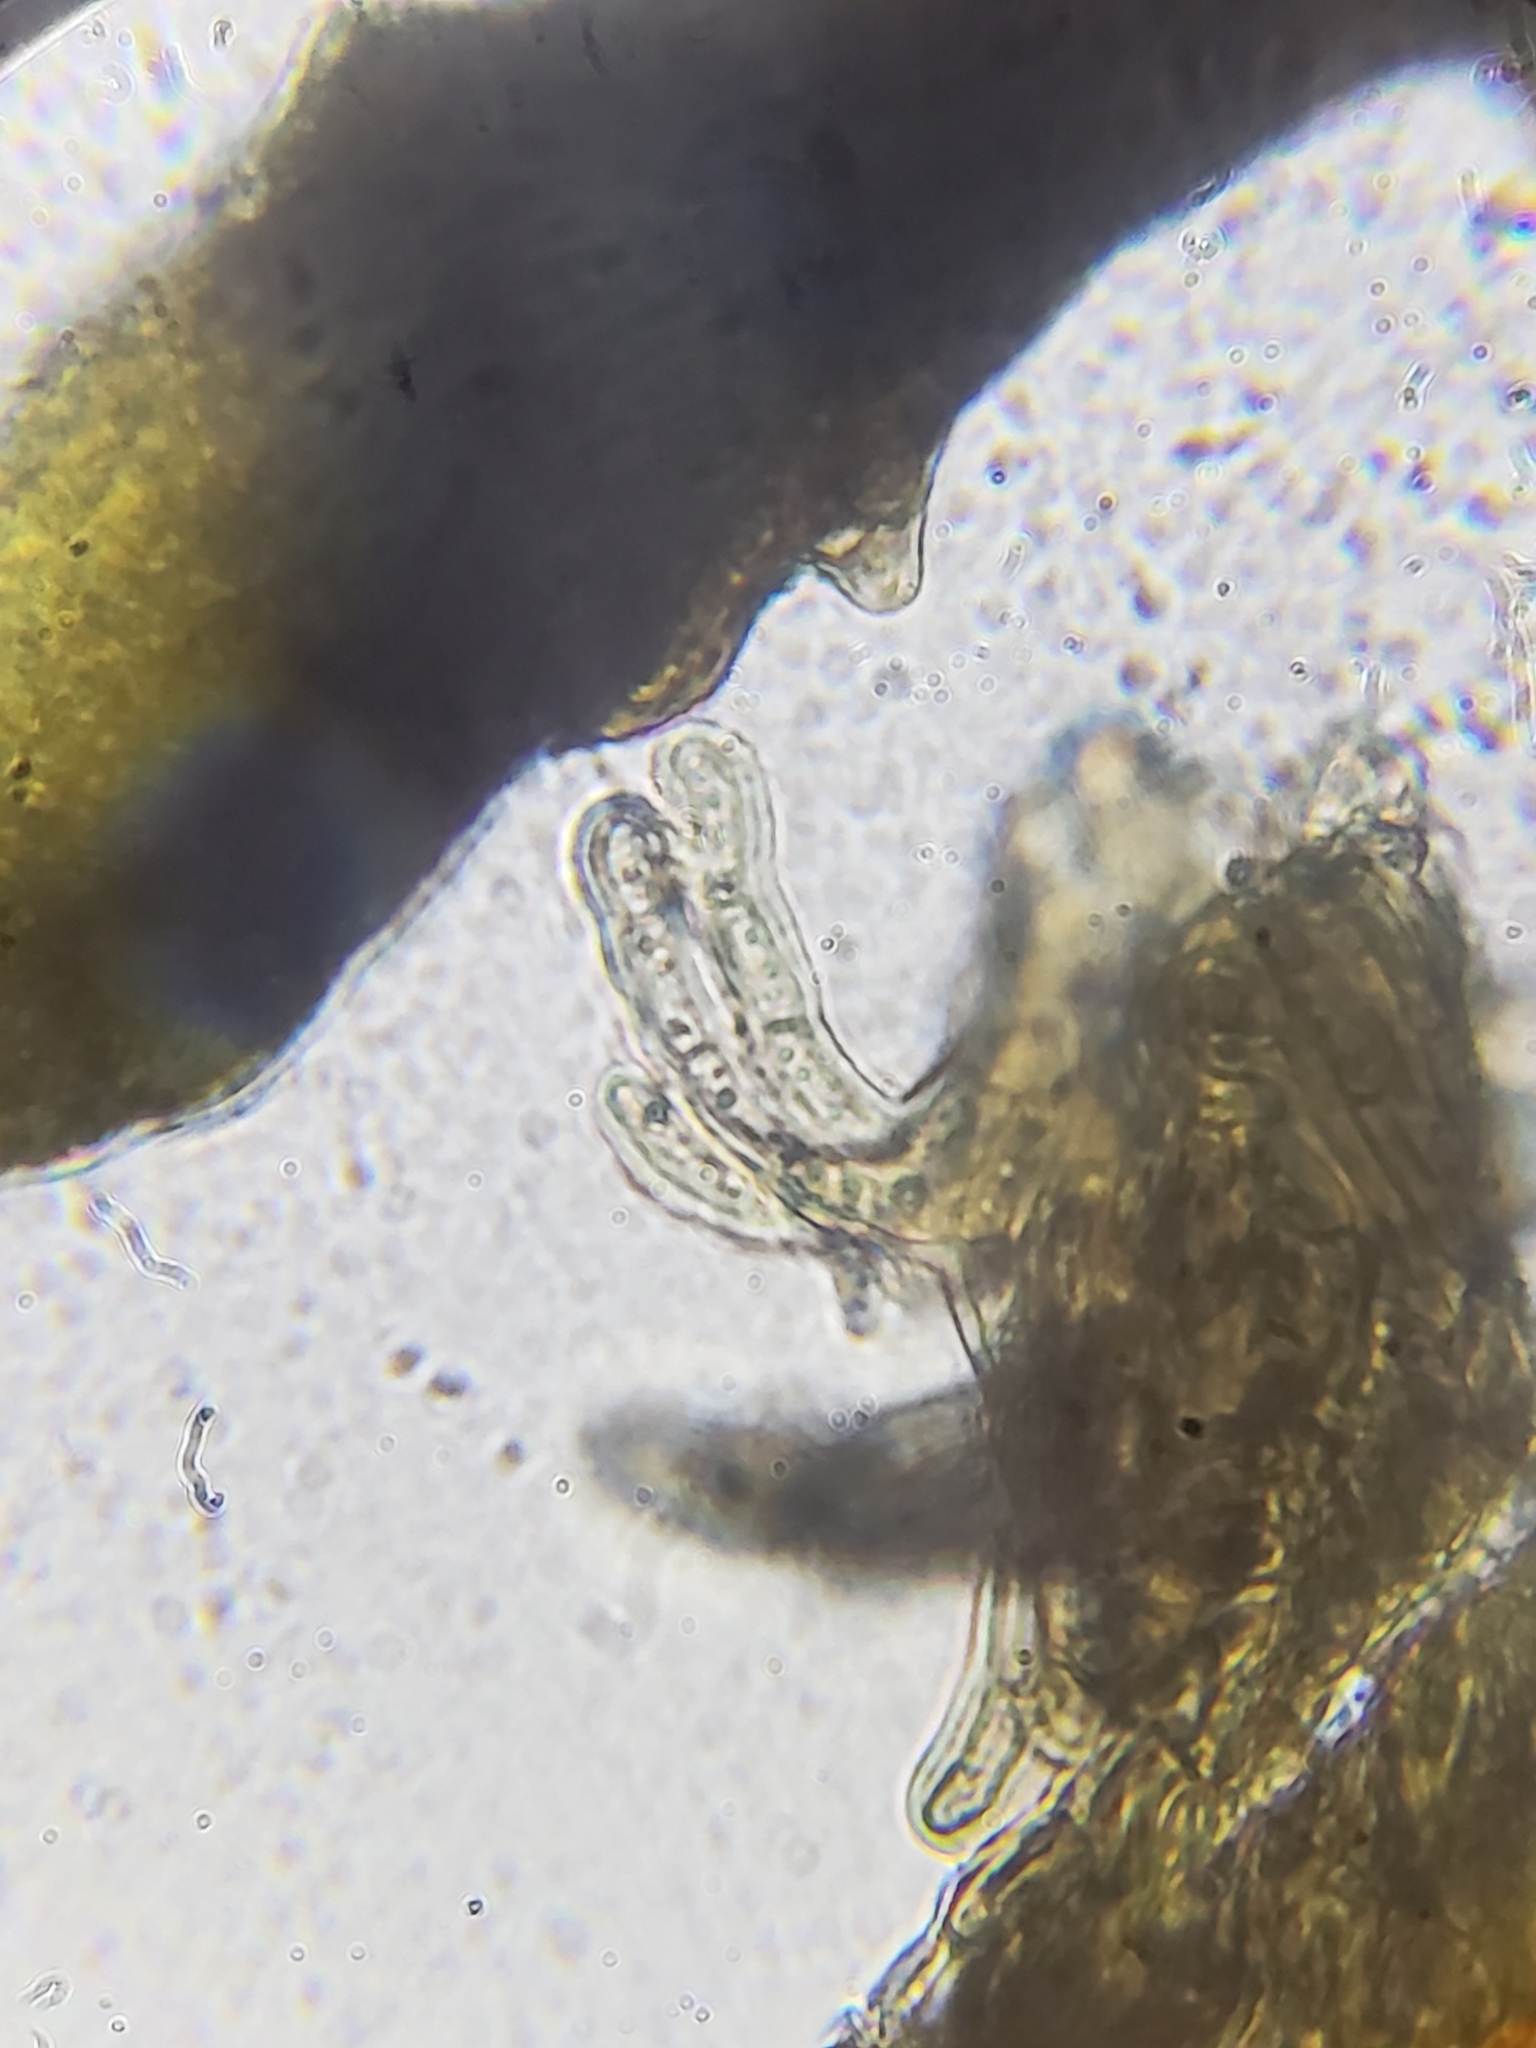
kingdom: Fungi
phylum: Ascomycota
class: Dothideomycetes
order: Capnodiales
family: Capnodiaceae
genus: Scorias
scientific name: Scorias spongiosa
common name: Black sooty mold
